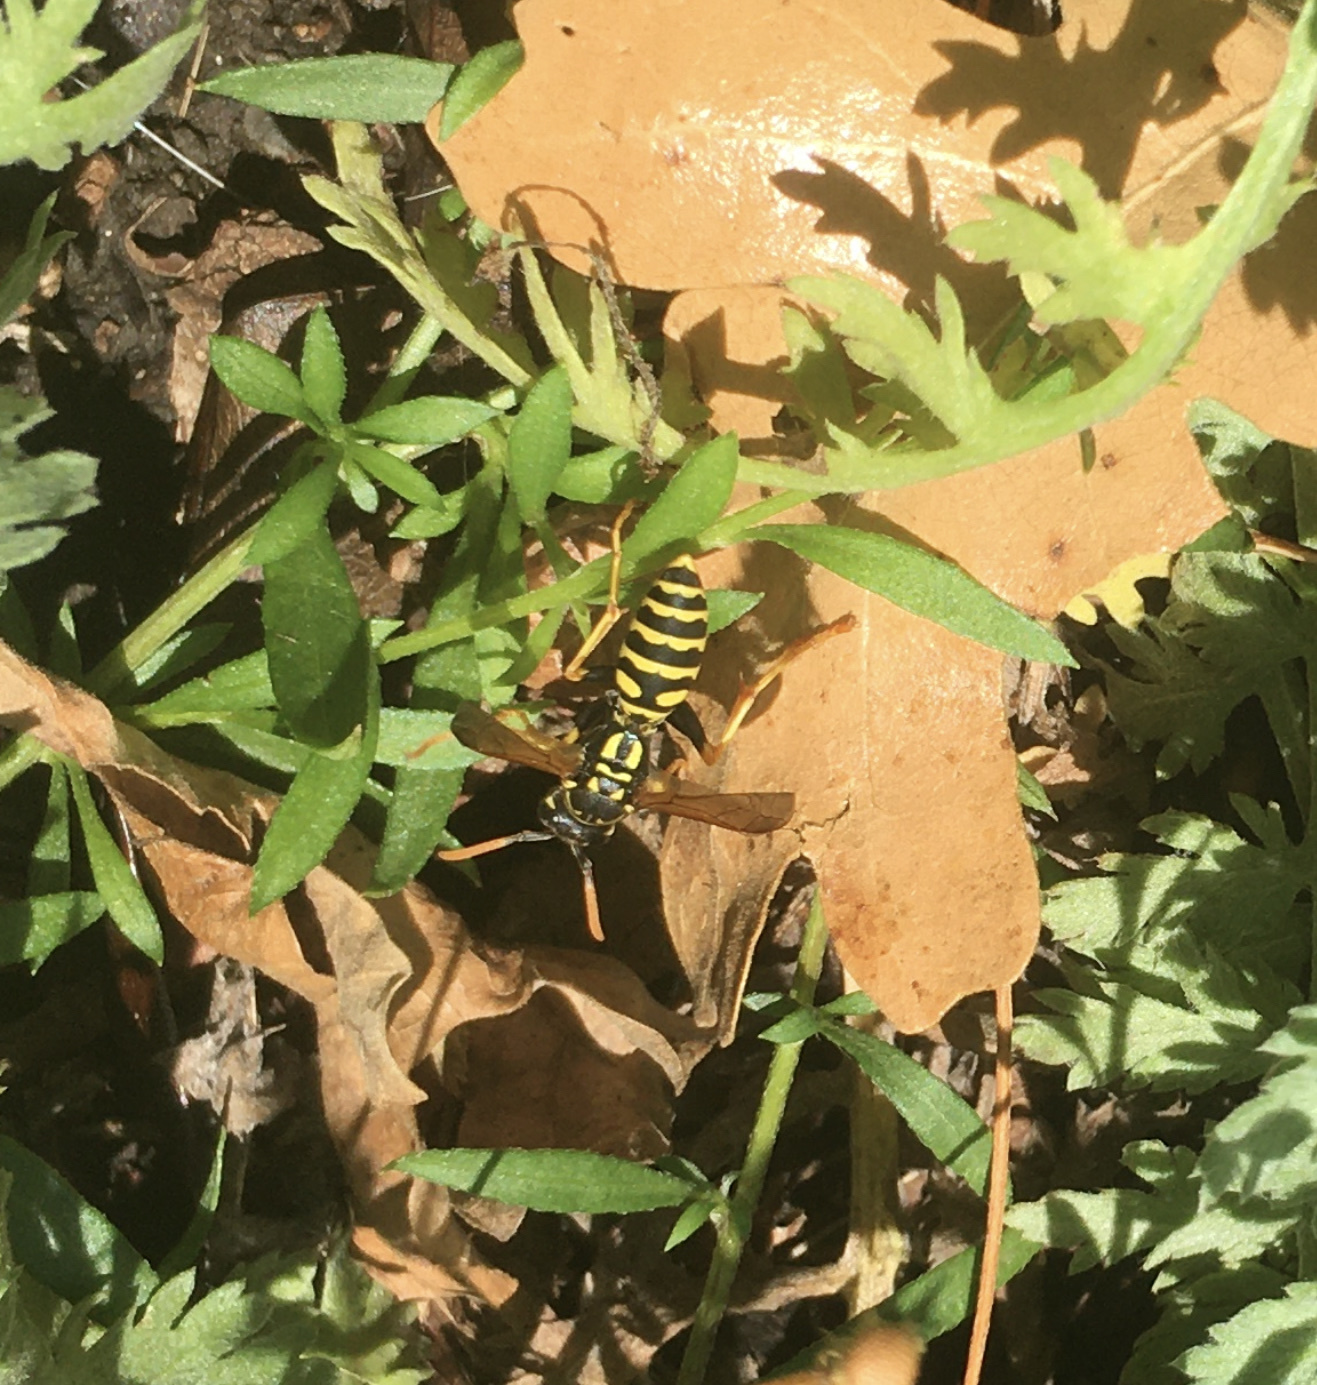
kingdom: Animalia
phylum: Arthropoda
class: Insecta
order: Hymenoptera
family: Eumenidae
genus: Polistes
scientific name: Polistes dominula
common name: Paper wasp
